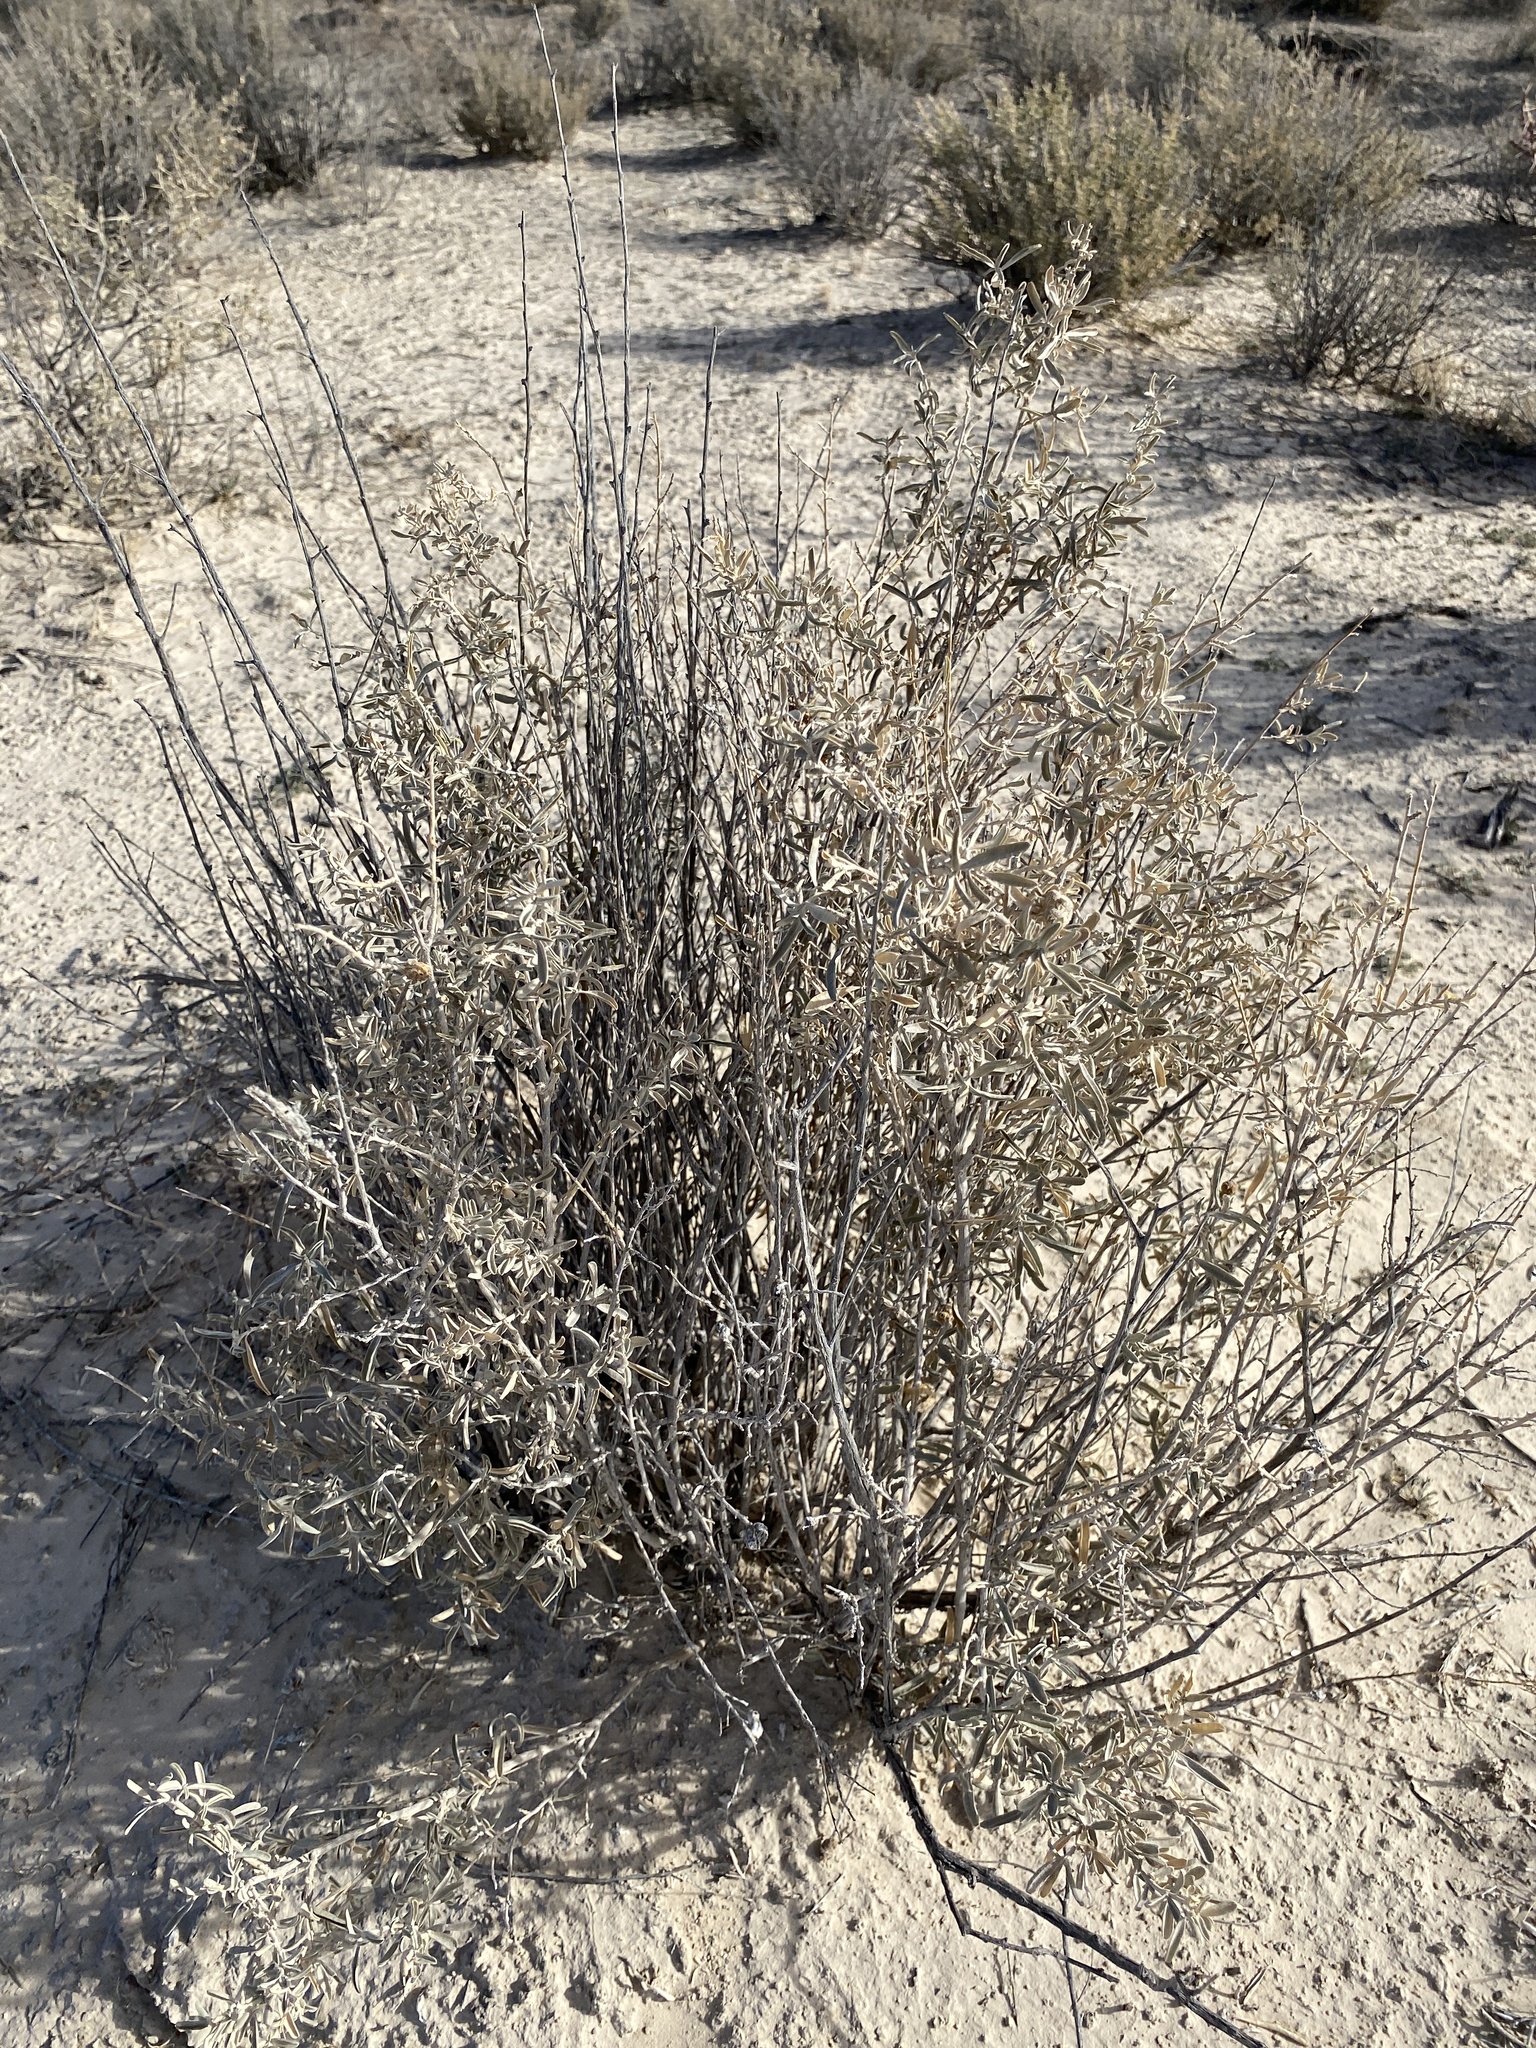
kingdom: Plantae
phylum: Tracheophyta
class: Magnoliopsida
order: Caryophyllales
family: Amaranthaceae
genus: Atriplex
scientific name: Atriplex canescens
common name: Four-wing saltbush
